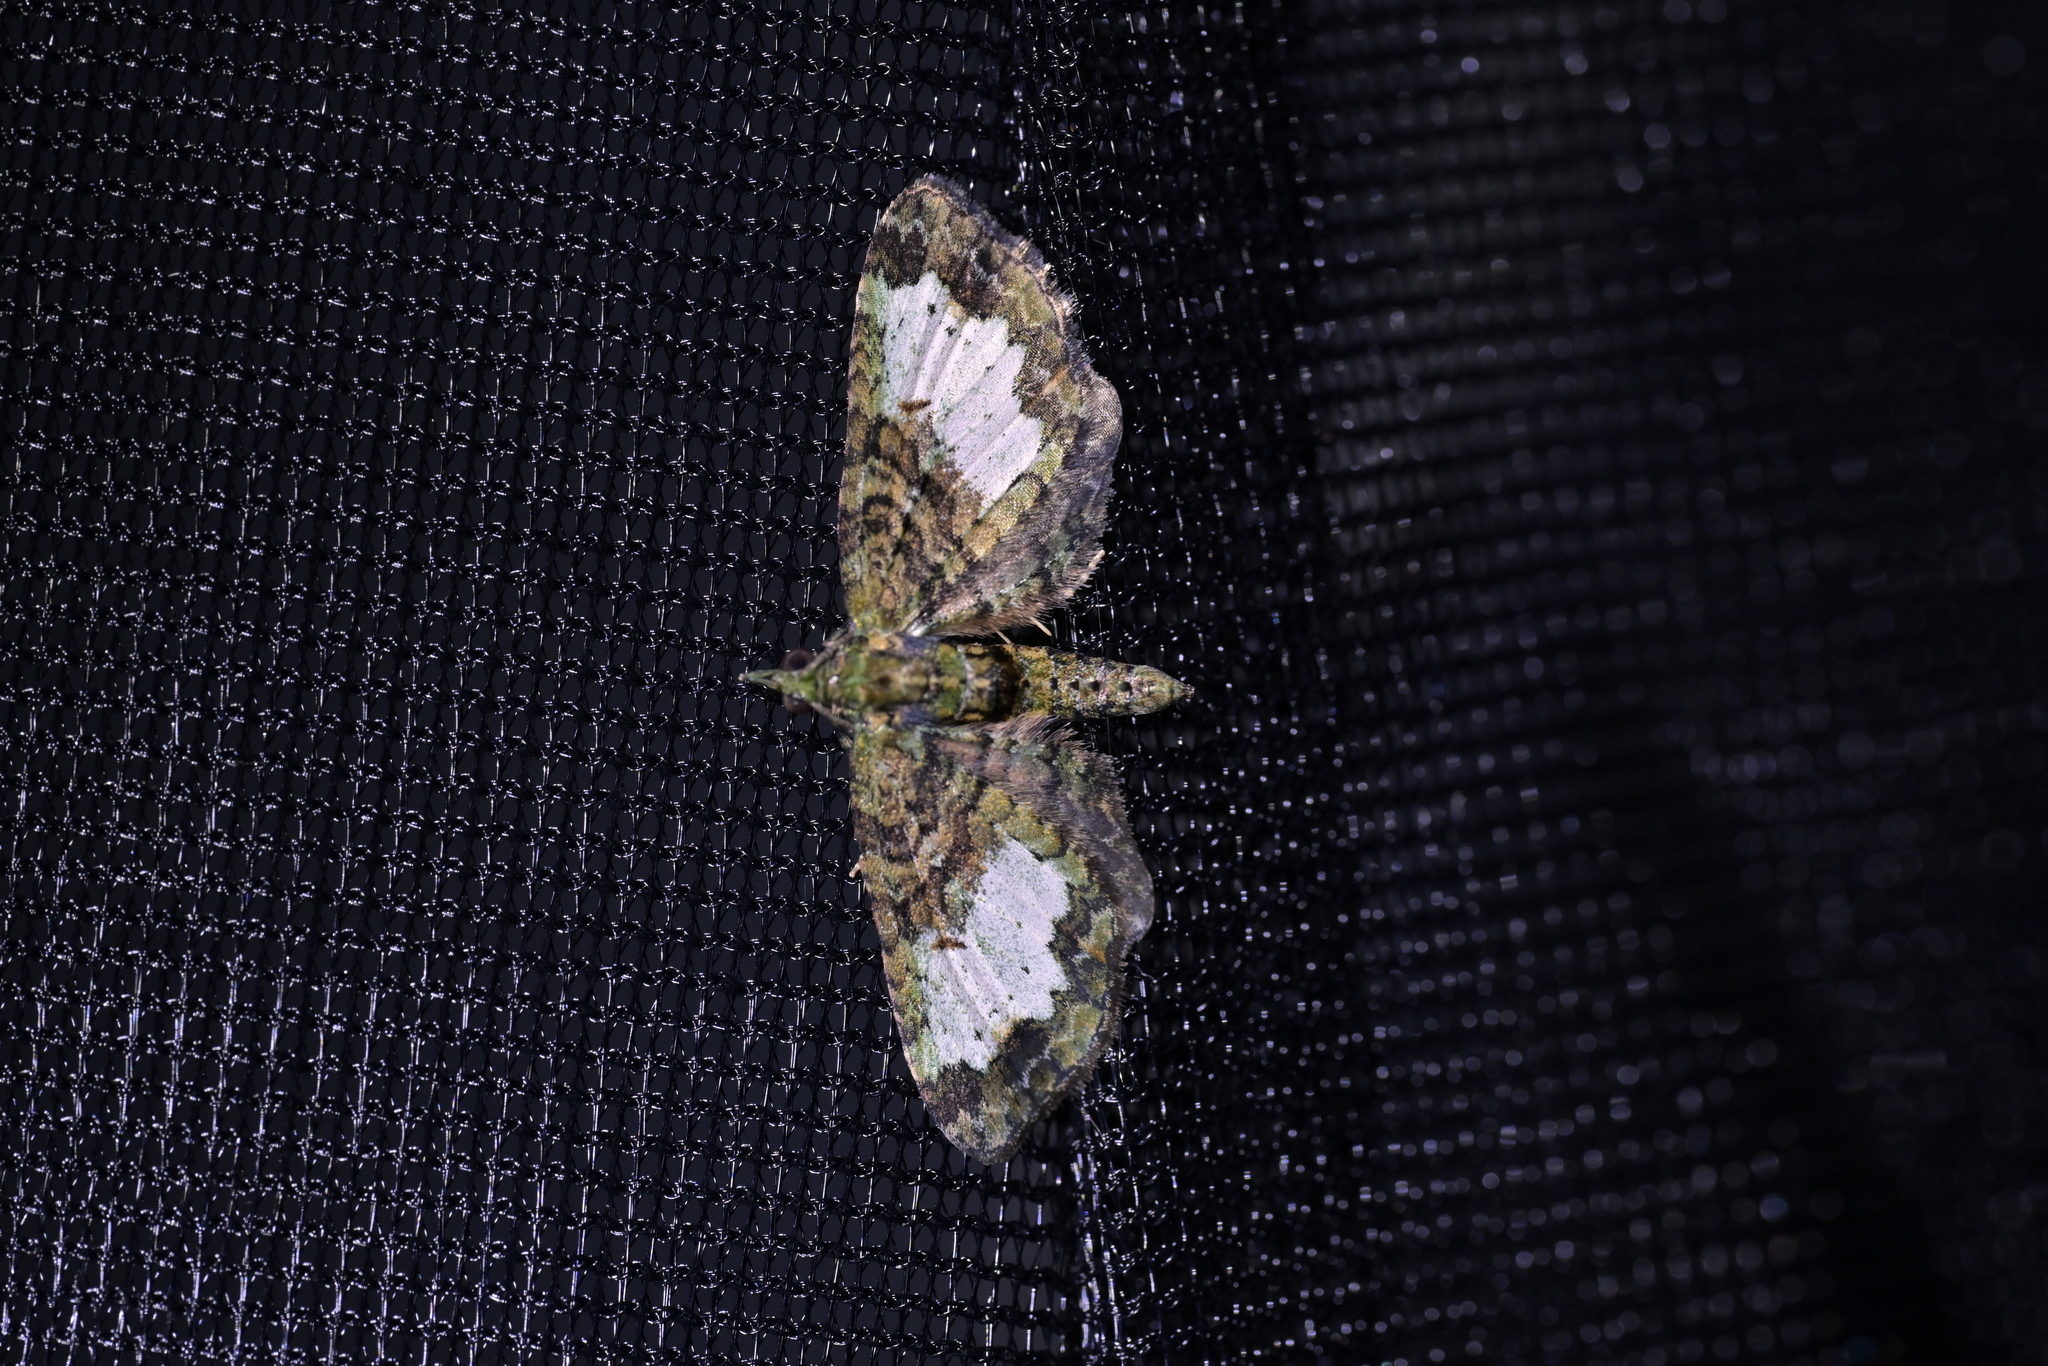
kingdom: Animalia
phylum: Arthropoda
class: Insecta
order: Lepidoptera
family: Geometridae
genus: Idaea
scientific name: Idaea mutanda
